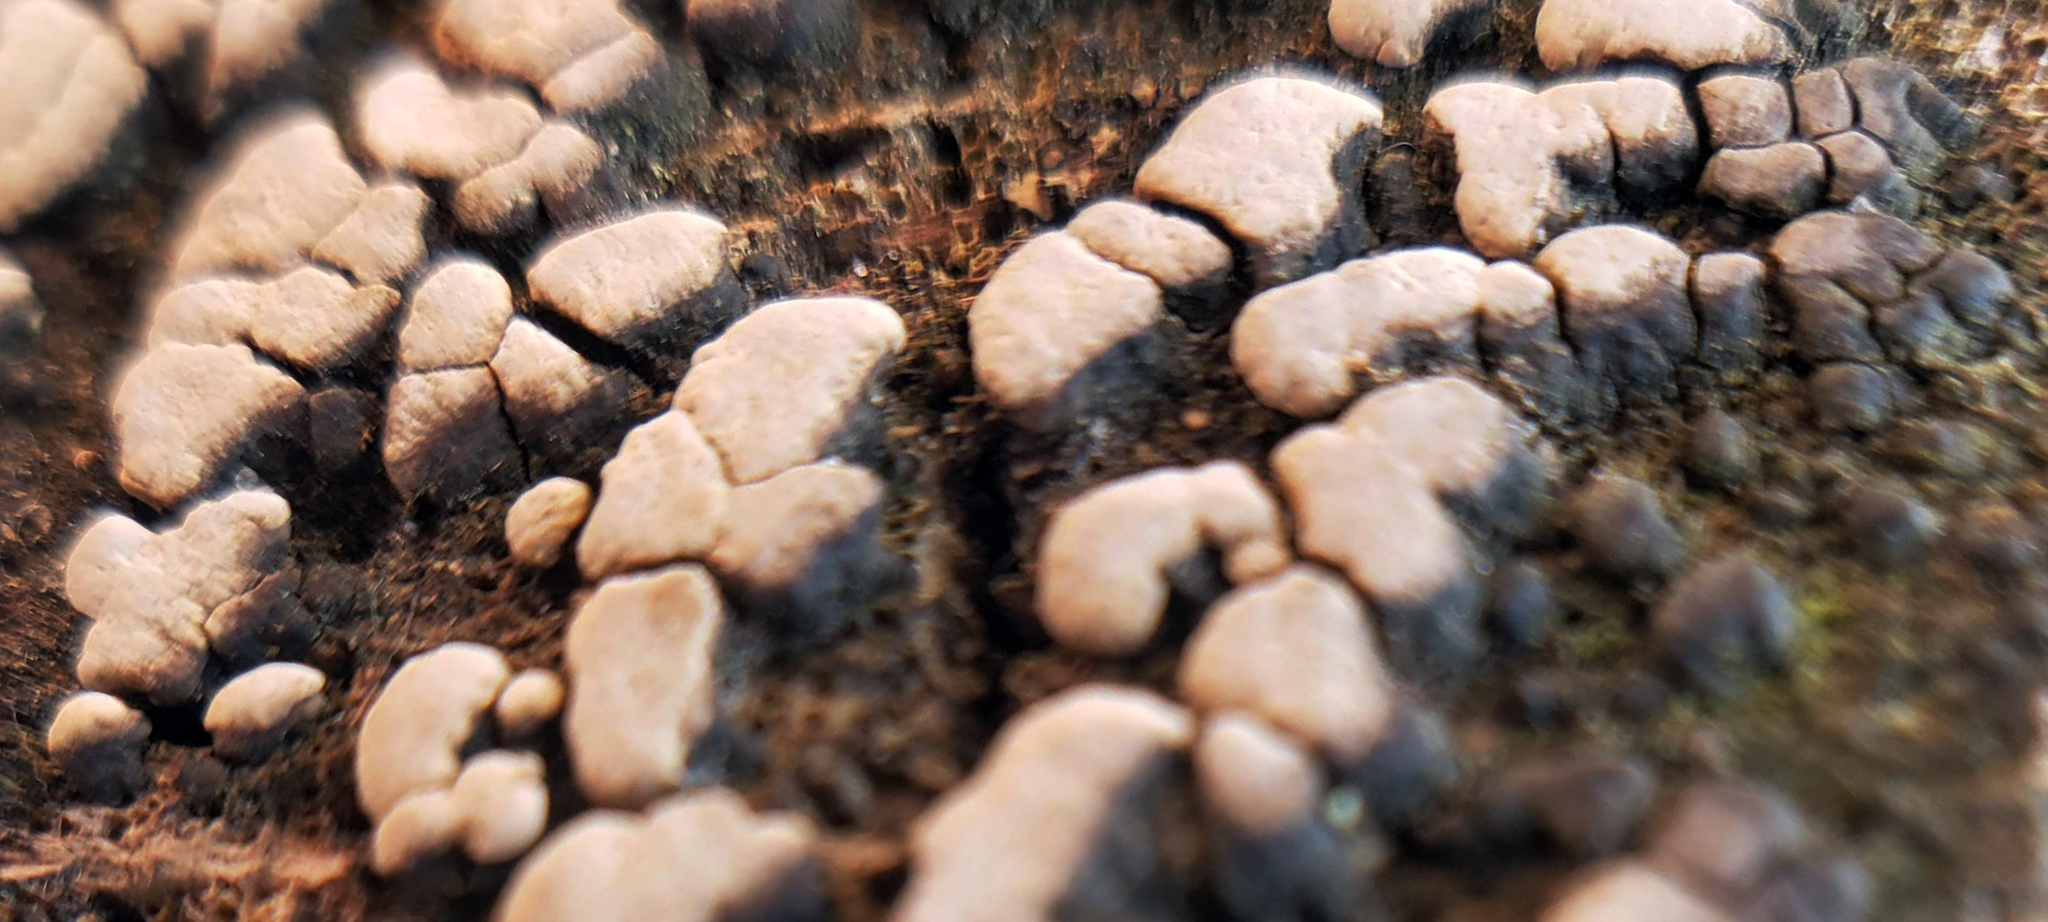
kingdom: Fungi
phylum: Basidiomycota
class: Agaricomycetes
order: Russulales
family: Stereaceae
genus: Xylobolus
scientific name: Xylobolus frustulatus
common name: Ceramic parchment
